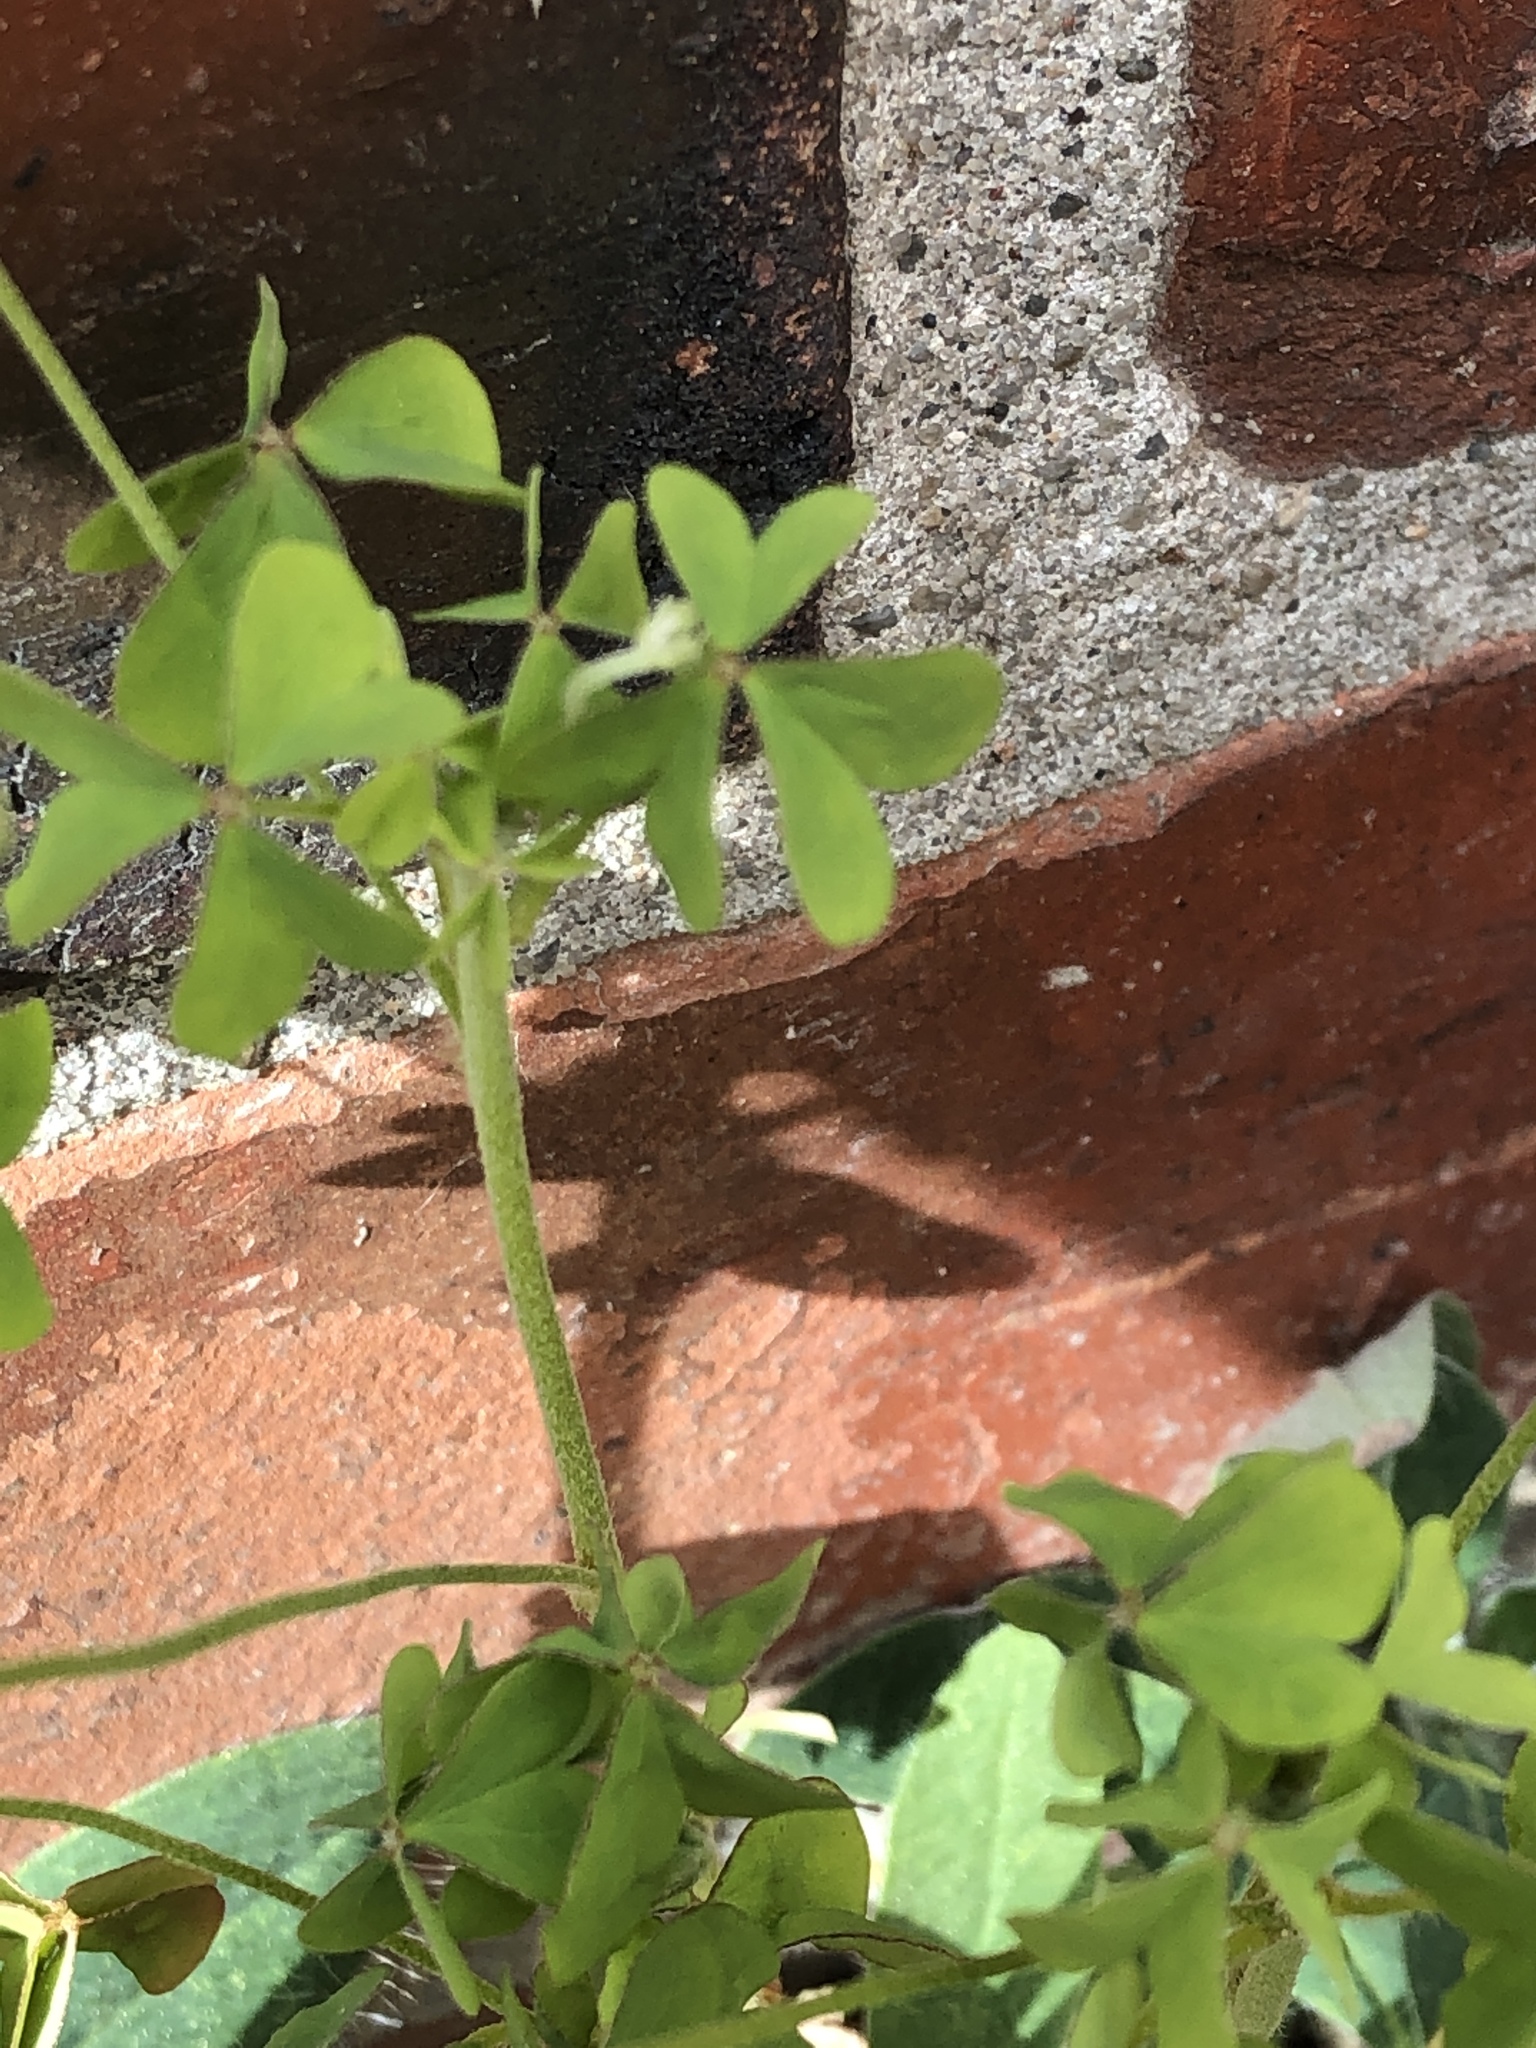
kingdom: Plantae
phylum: Tracheophyta
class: Magnoliopsida
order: Oxalidales
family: Oxalidaceae
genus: Oxalis
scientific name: Oxalis dillenii
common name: Sussex yellow-sorrel
